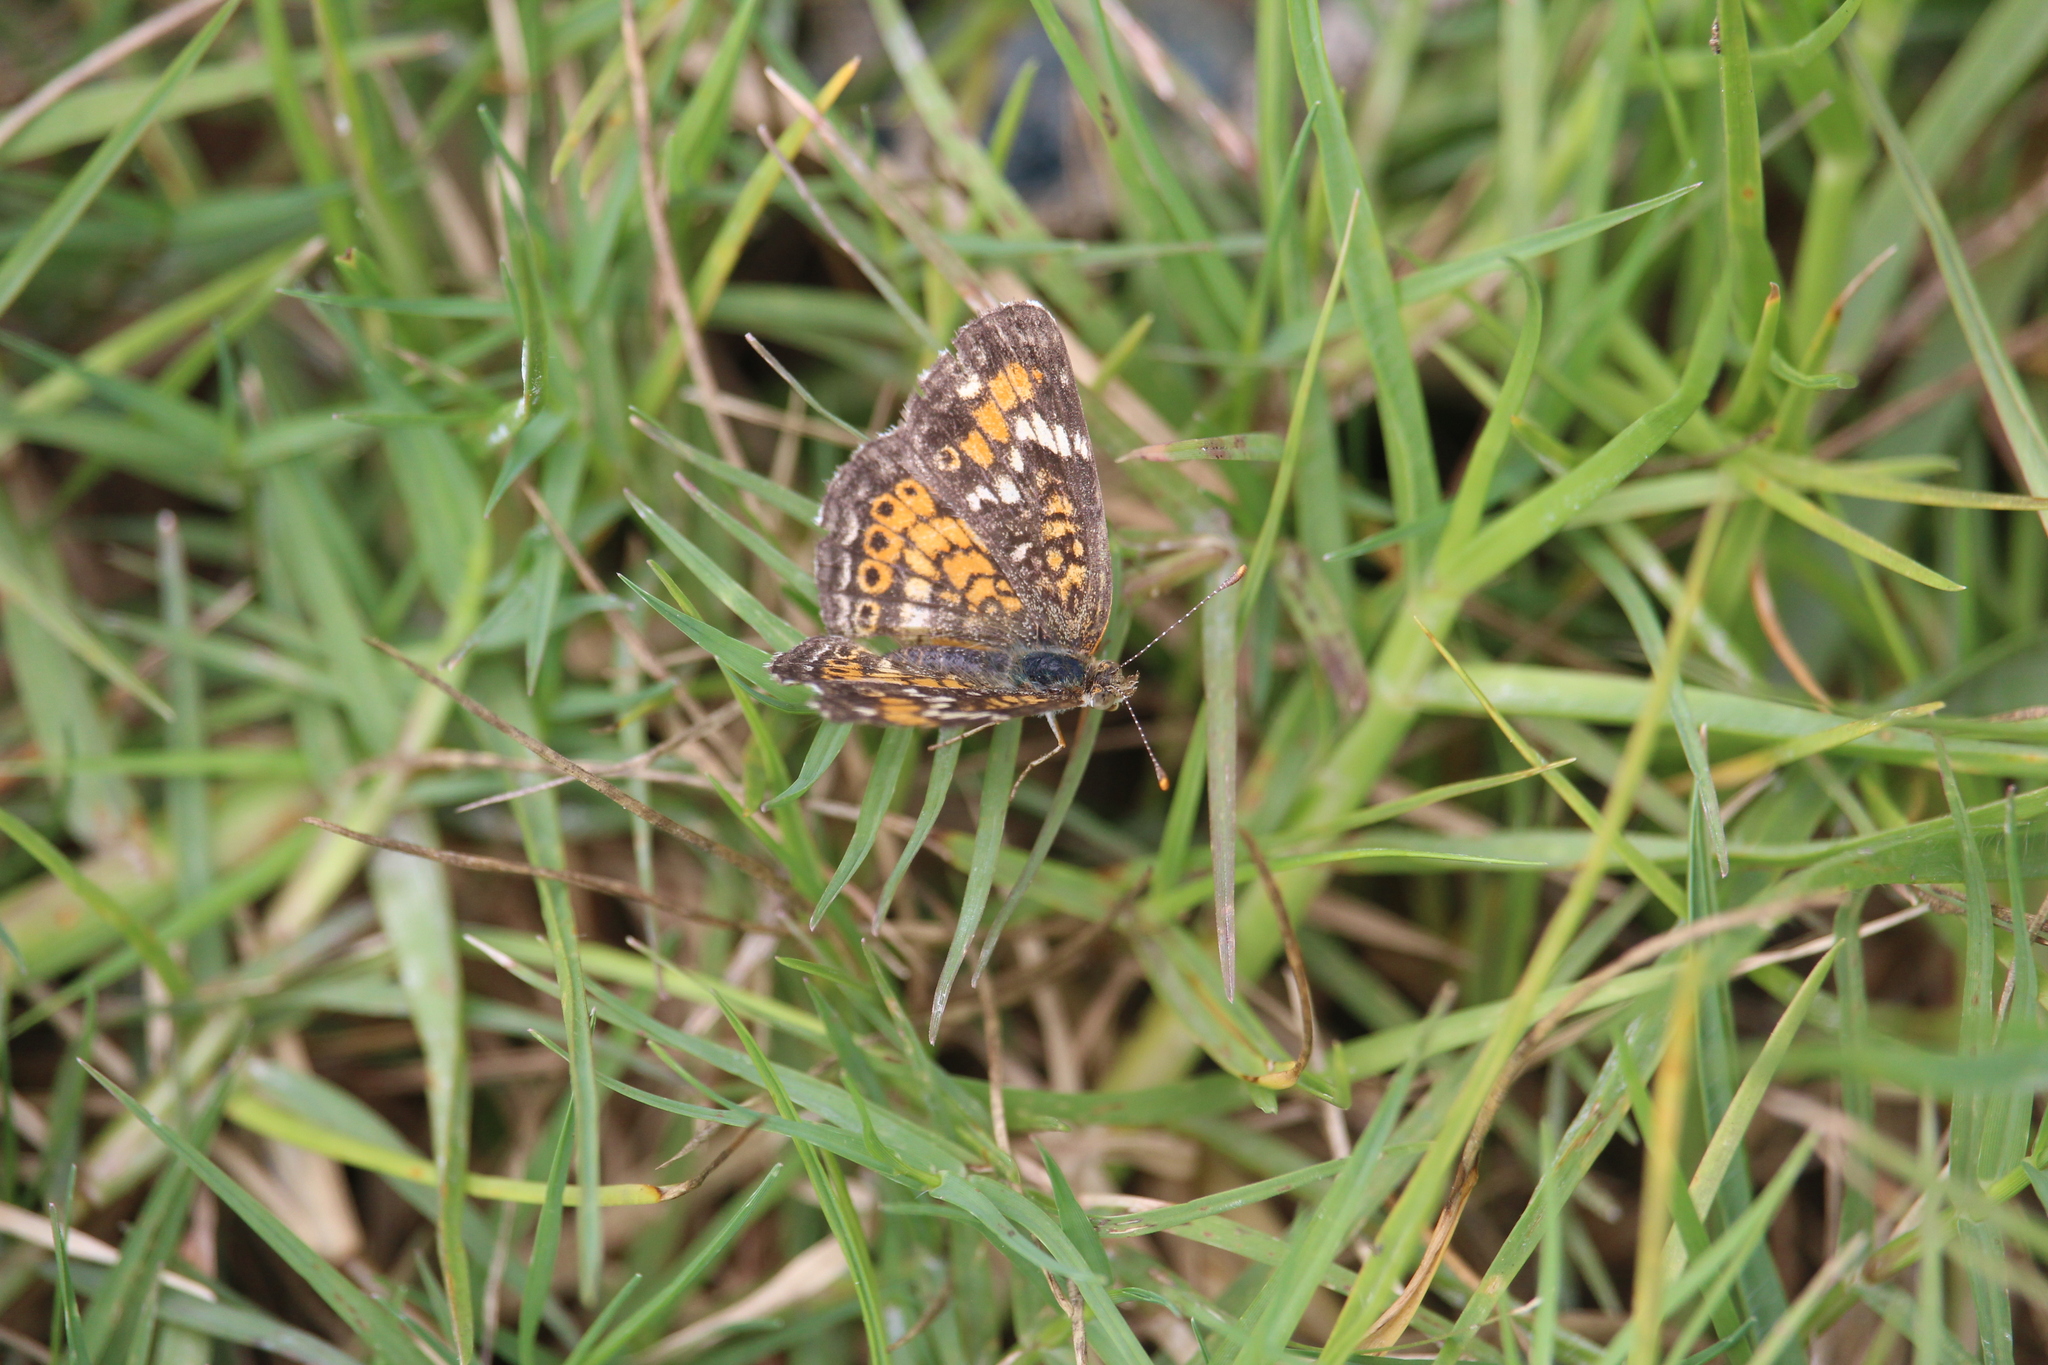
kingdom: Animalia
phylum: Arthropoda
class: Insecta
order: Lepidoptera
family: Nymphalidae
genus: Phyciodes
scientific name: Phyciodes phaon
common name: Phaon crescent
